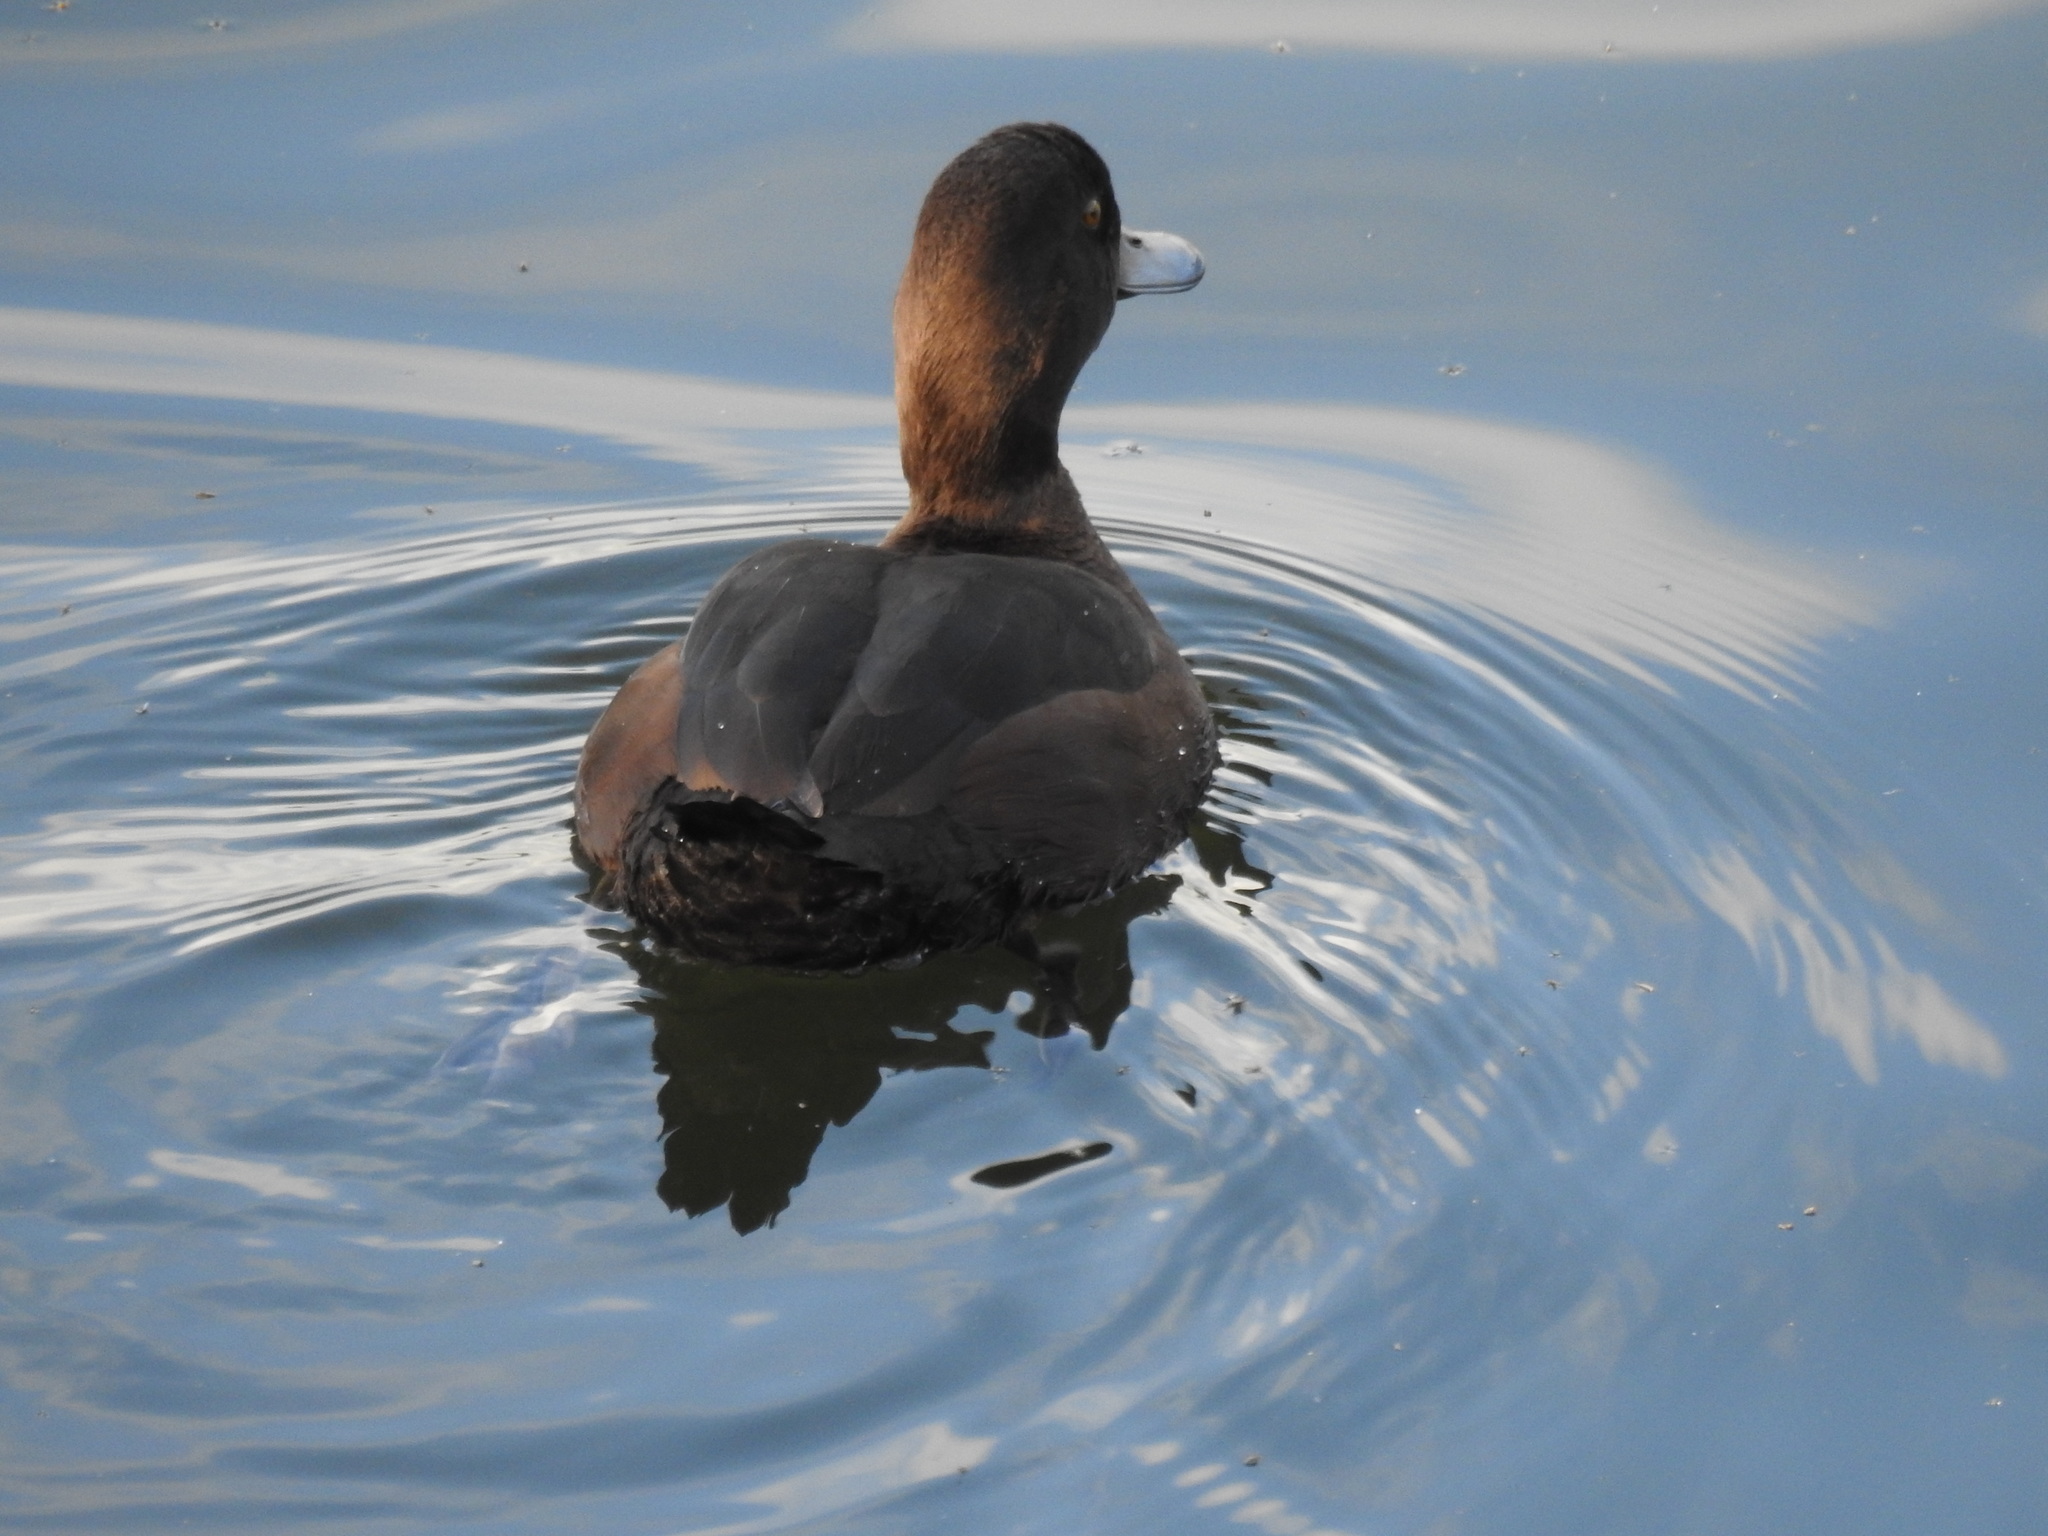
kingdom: Animalia
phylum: Chordata
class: Aves
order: Anseriformes
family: Anatidae
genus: Aythya
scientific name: Aythya novaeseelandiae
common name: New zealand scaup
